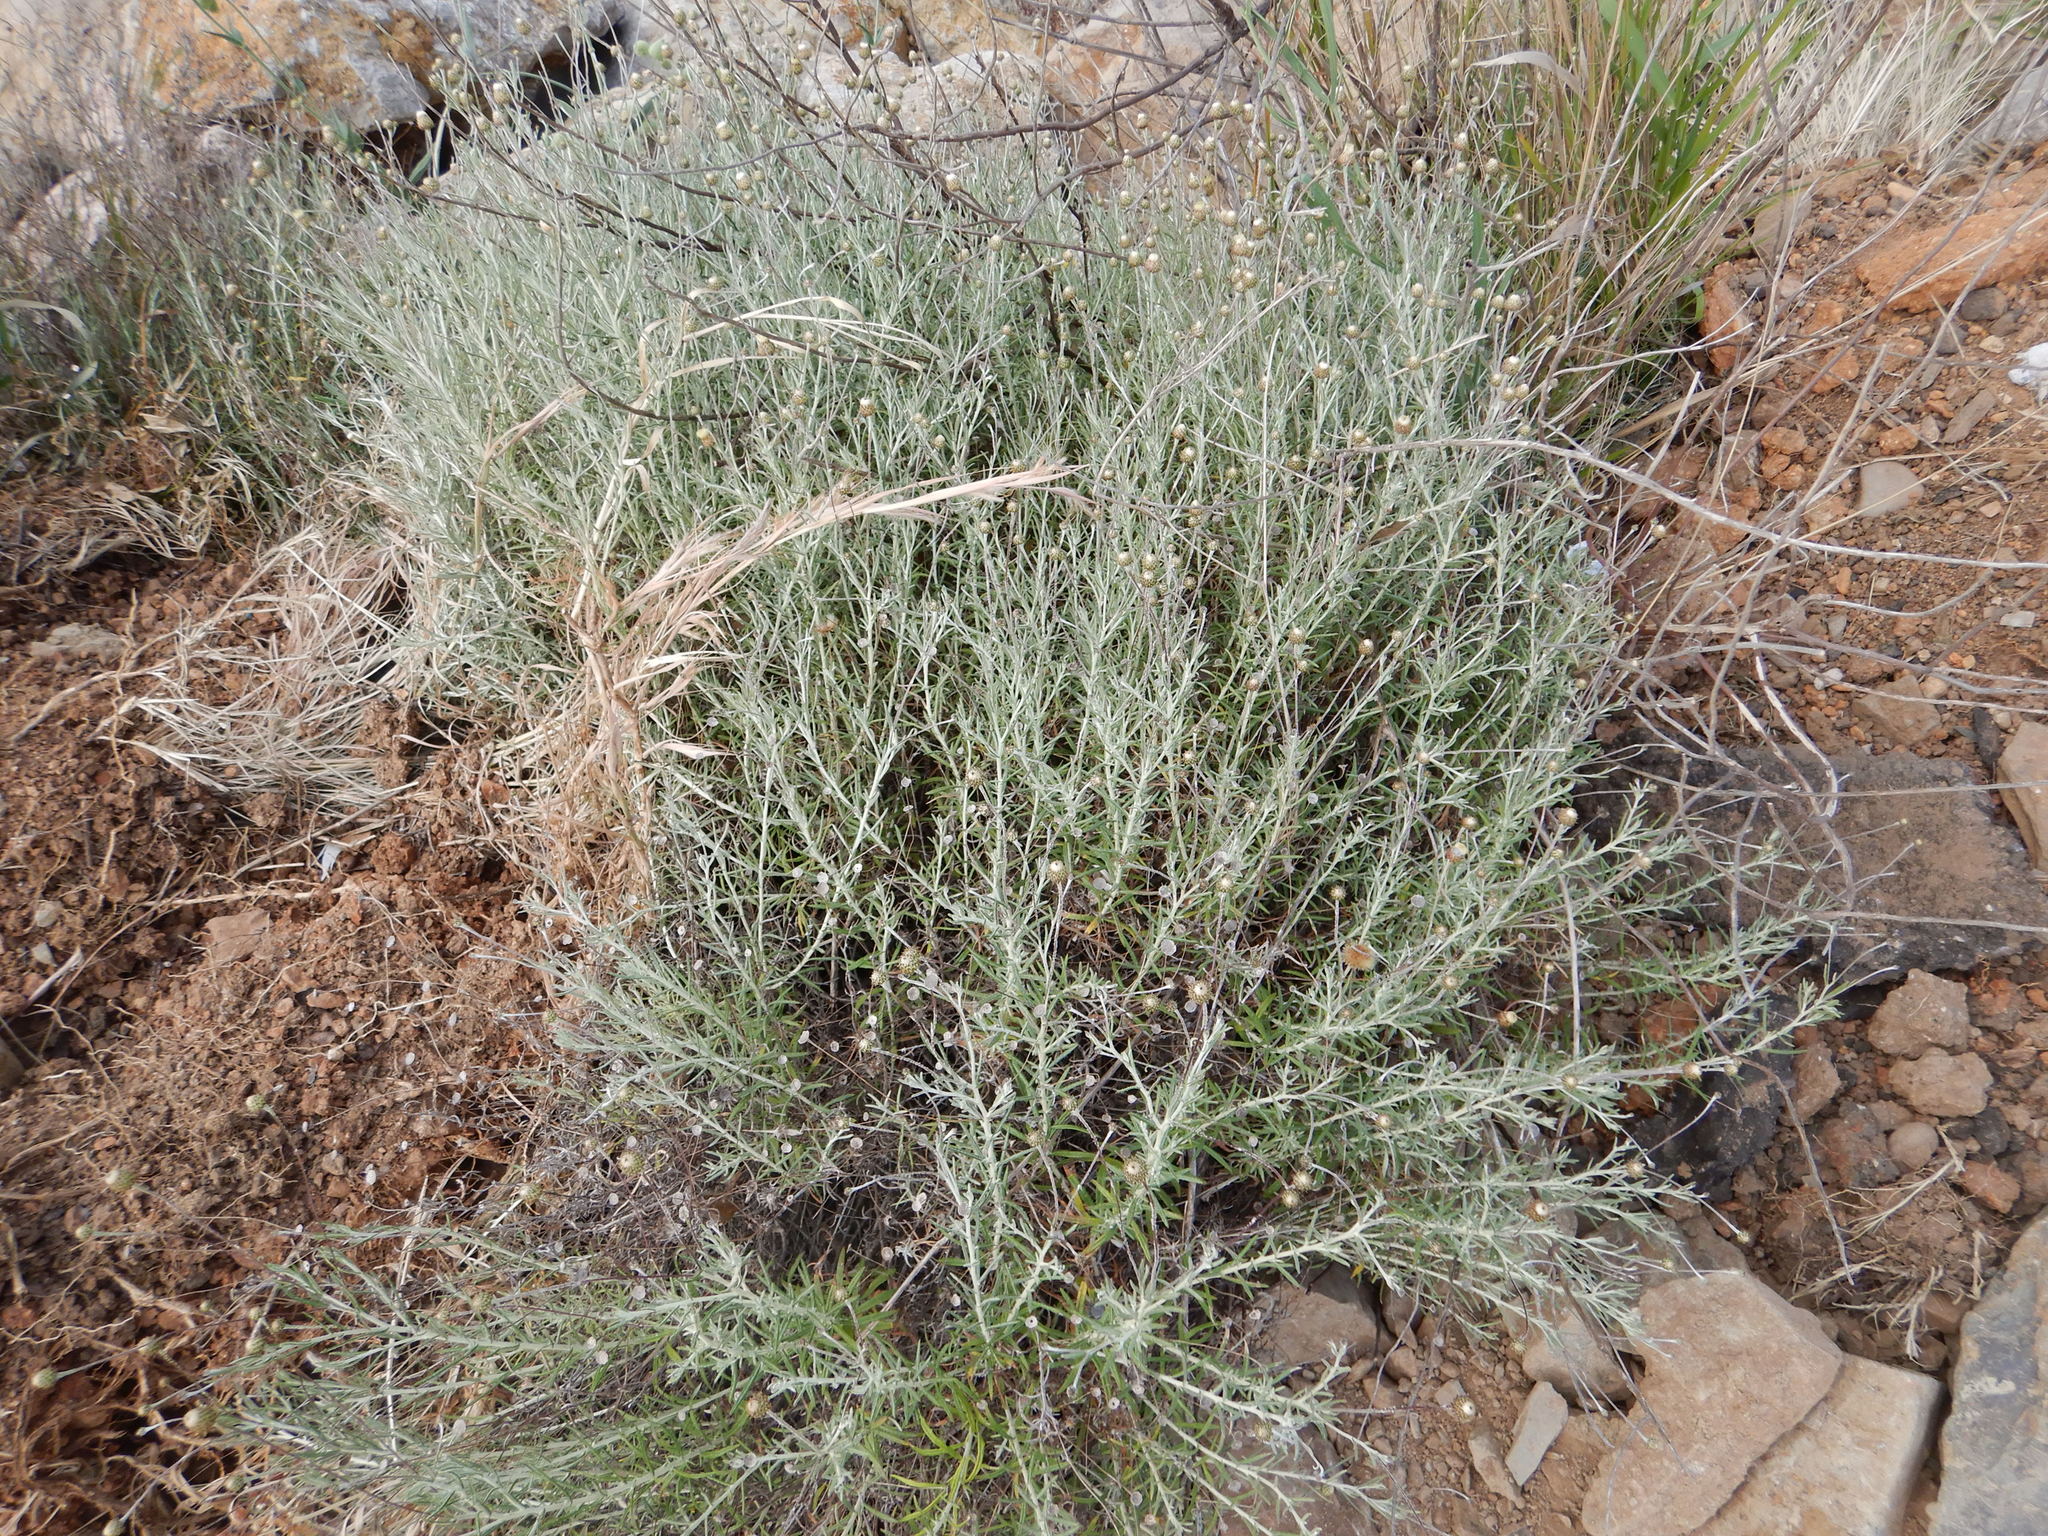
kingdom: Plantae
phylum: Tracheophyta
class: Magnoliopsida
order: Asterales
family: Asteraceae
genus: Phagnalon
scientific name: Phagnalon saxatile
